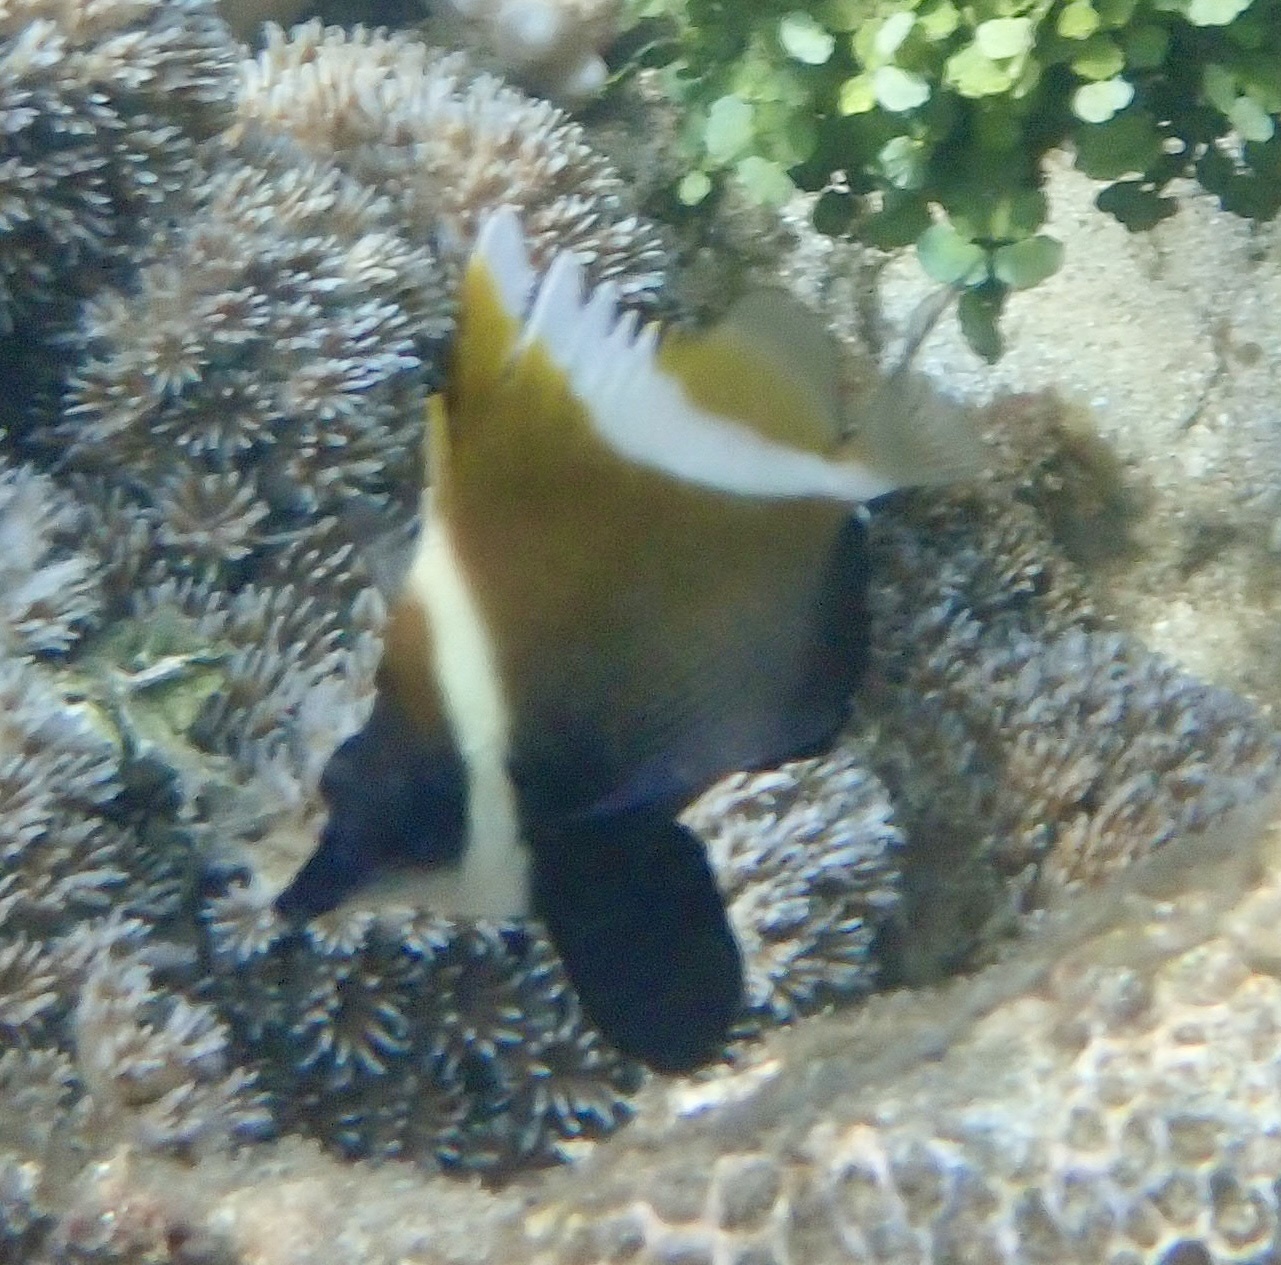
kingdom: Animalia
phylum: Chordata
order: Perciformes
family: Chaetodontidae
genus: Heniochus
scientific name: Heniochus varius
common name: Horned bannerfish
